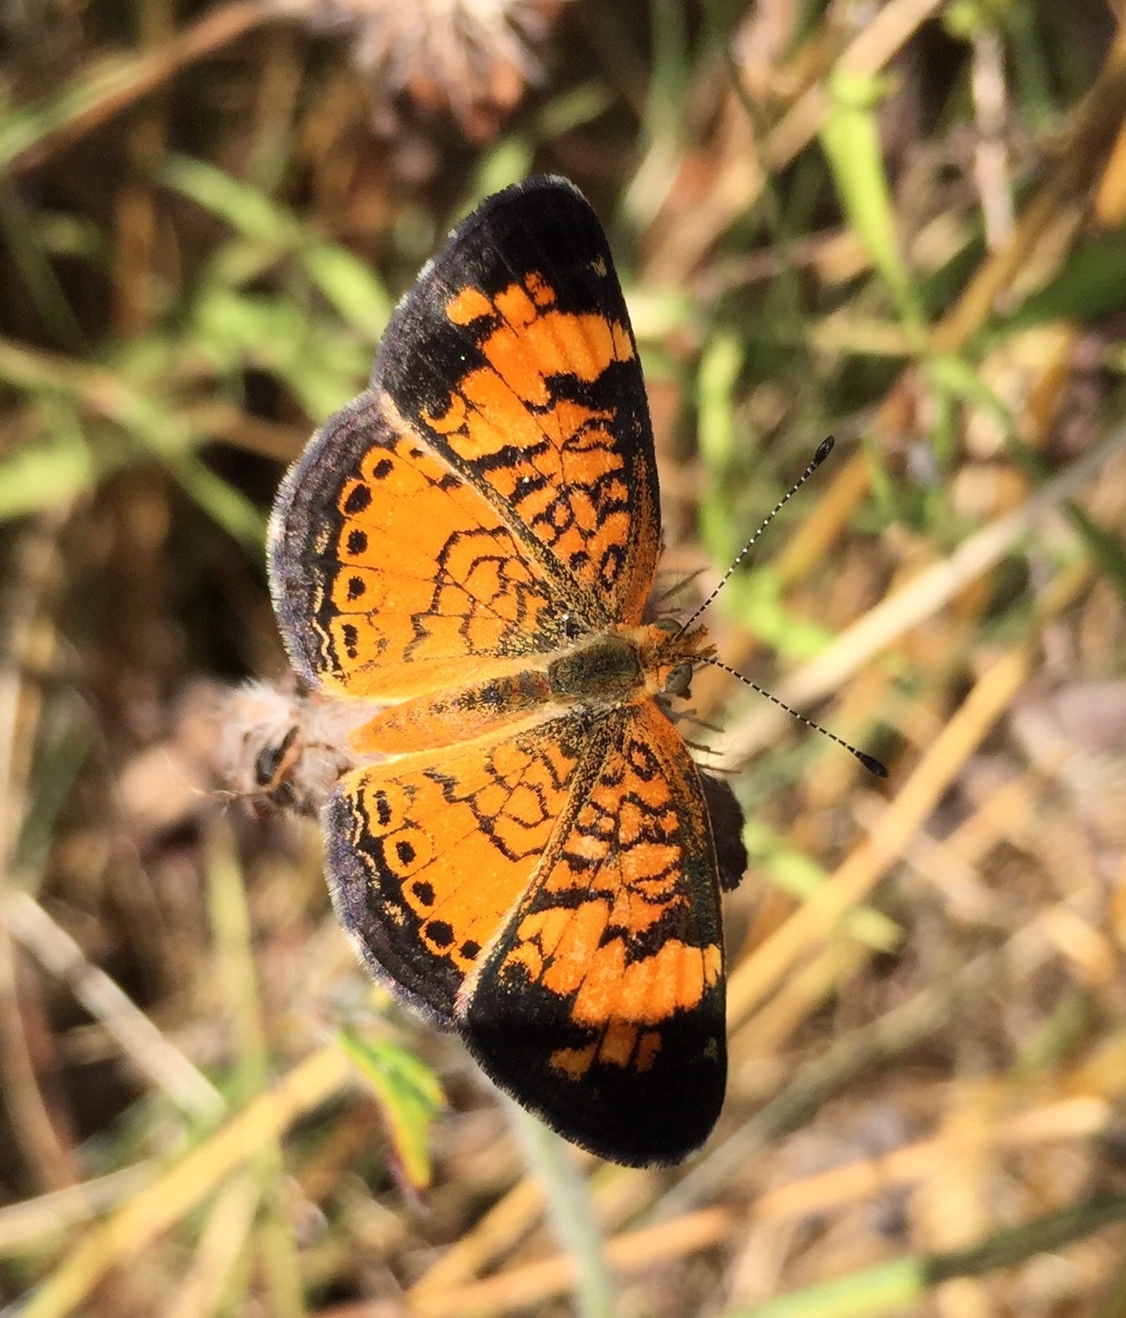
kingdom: Animalia
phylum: Arthropoda
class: Insecta
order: Lepidoptera
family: Nymphalidae
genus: Phyciodes
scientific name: Phyciodes tharos
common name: Pearl crescent
